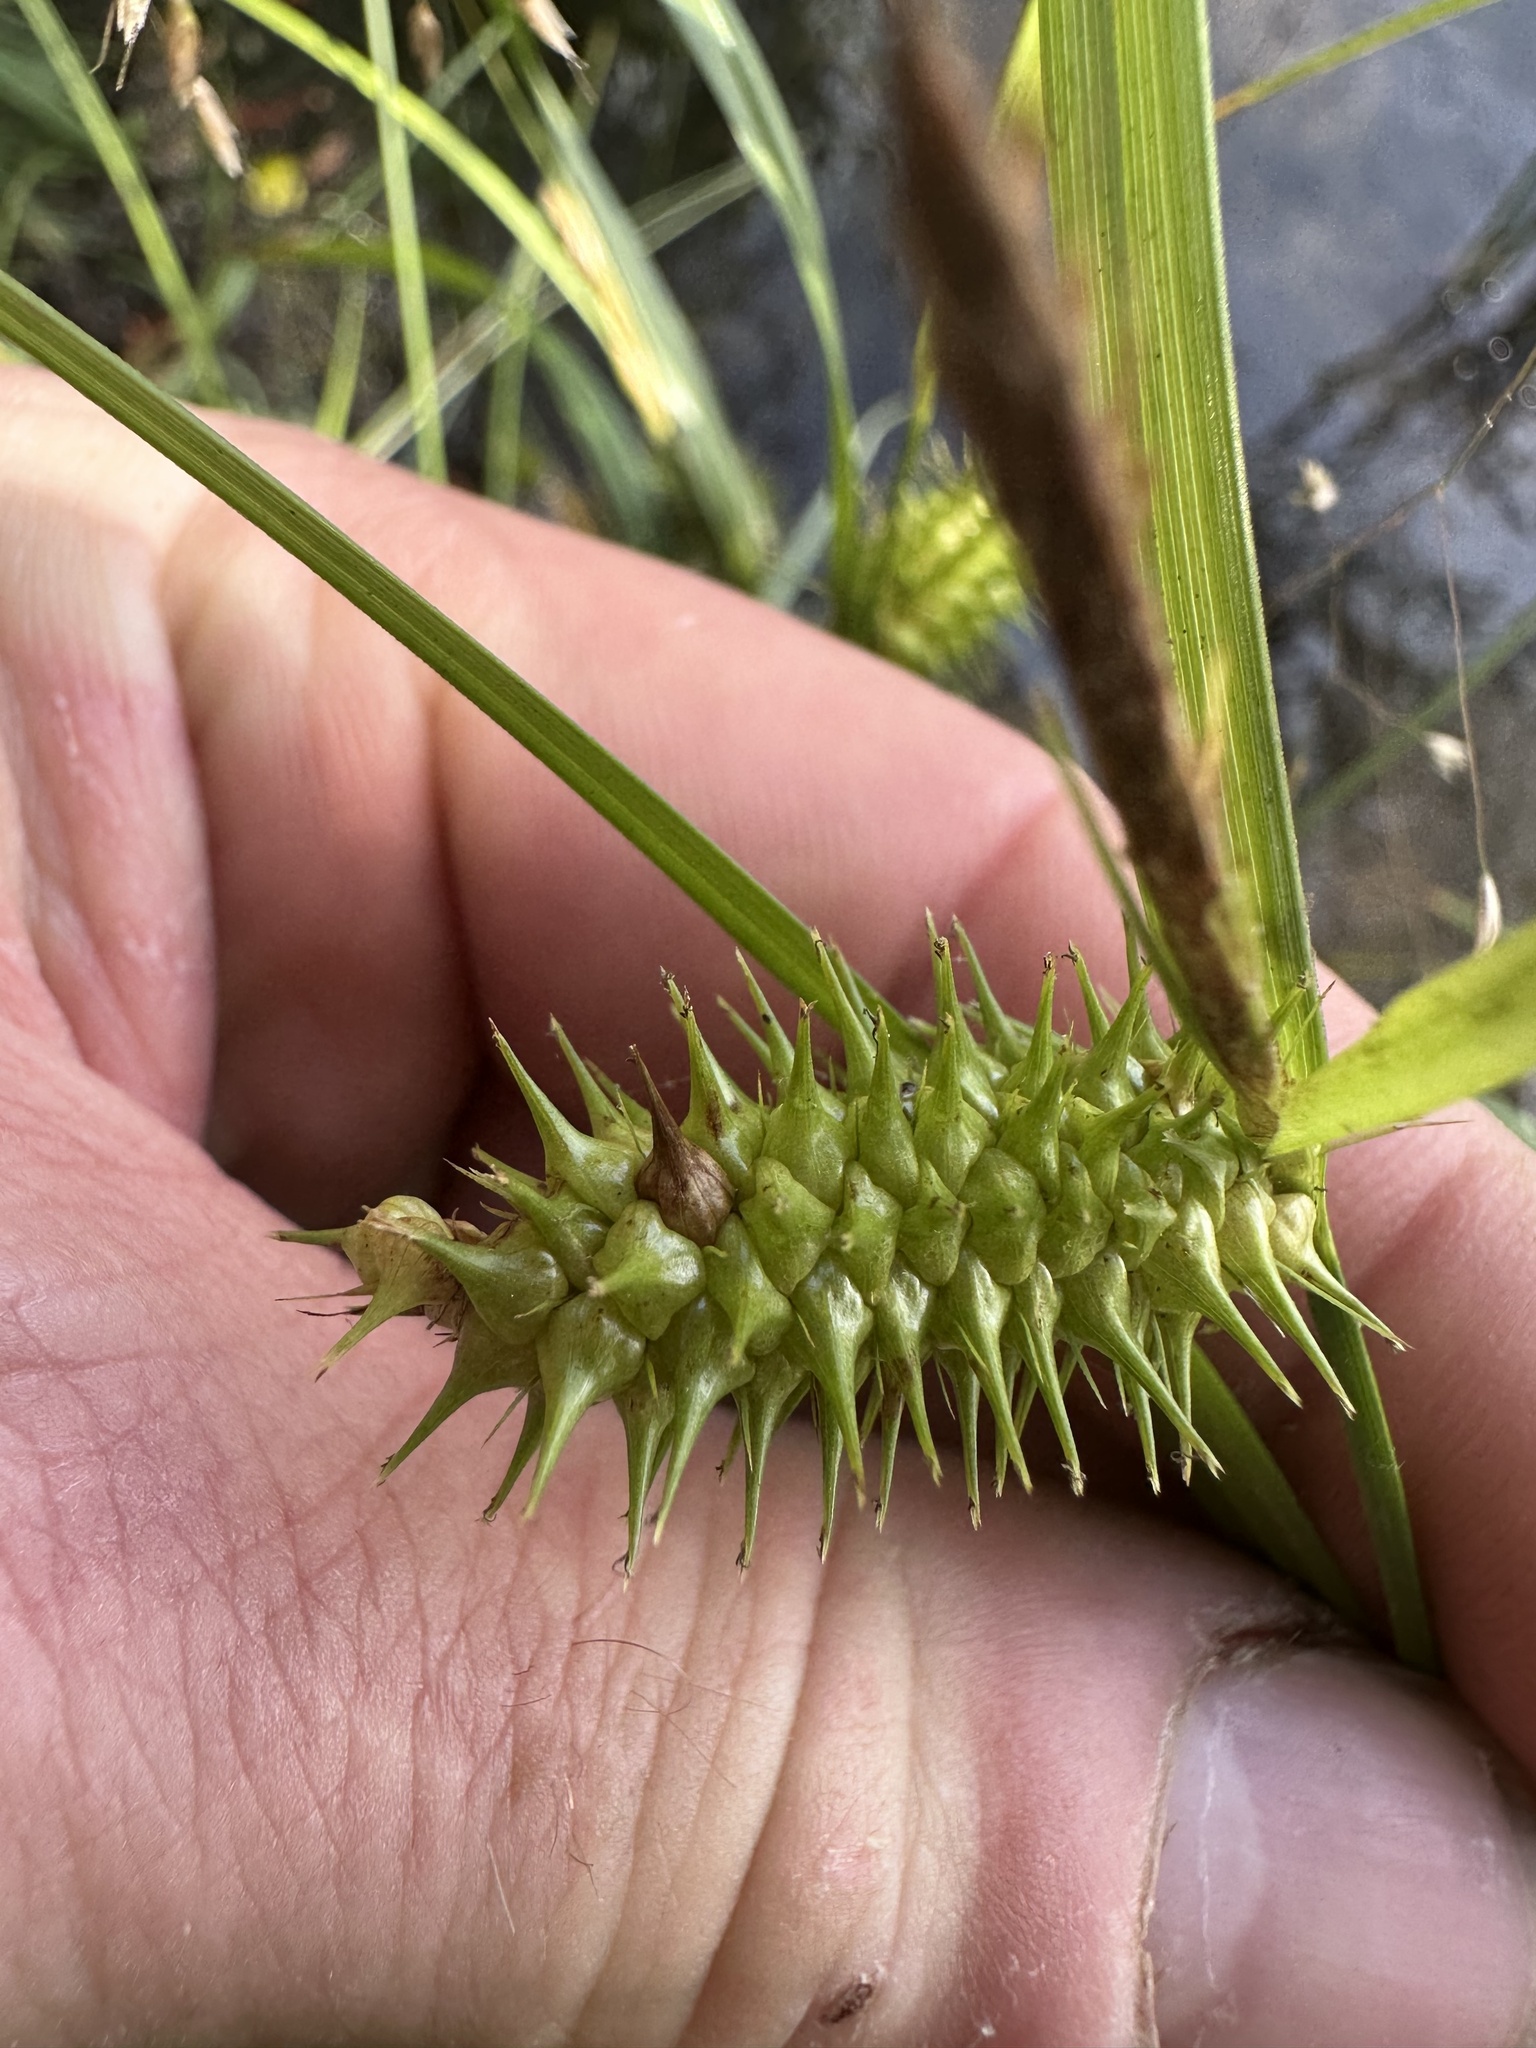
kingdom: Plantae
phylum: Tracheophyta
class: Liliopsida
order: Poales
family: Cyperaceae
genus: Carex
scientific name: Carex lurida
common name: Sallow sedge
